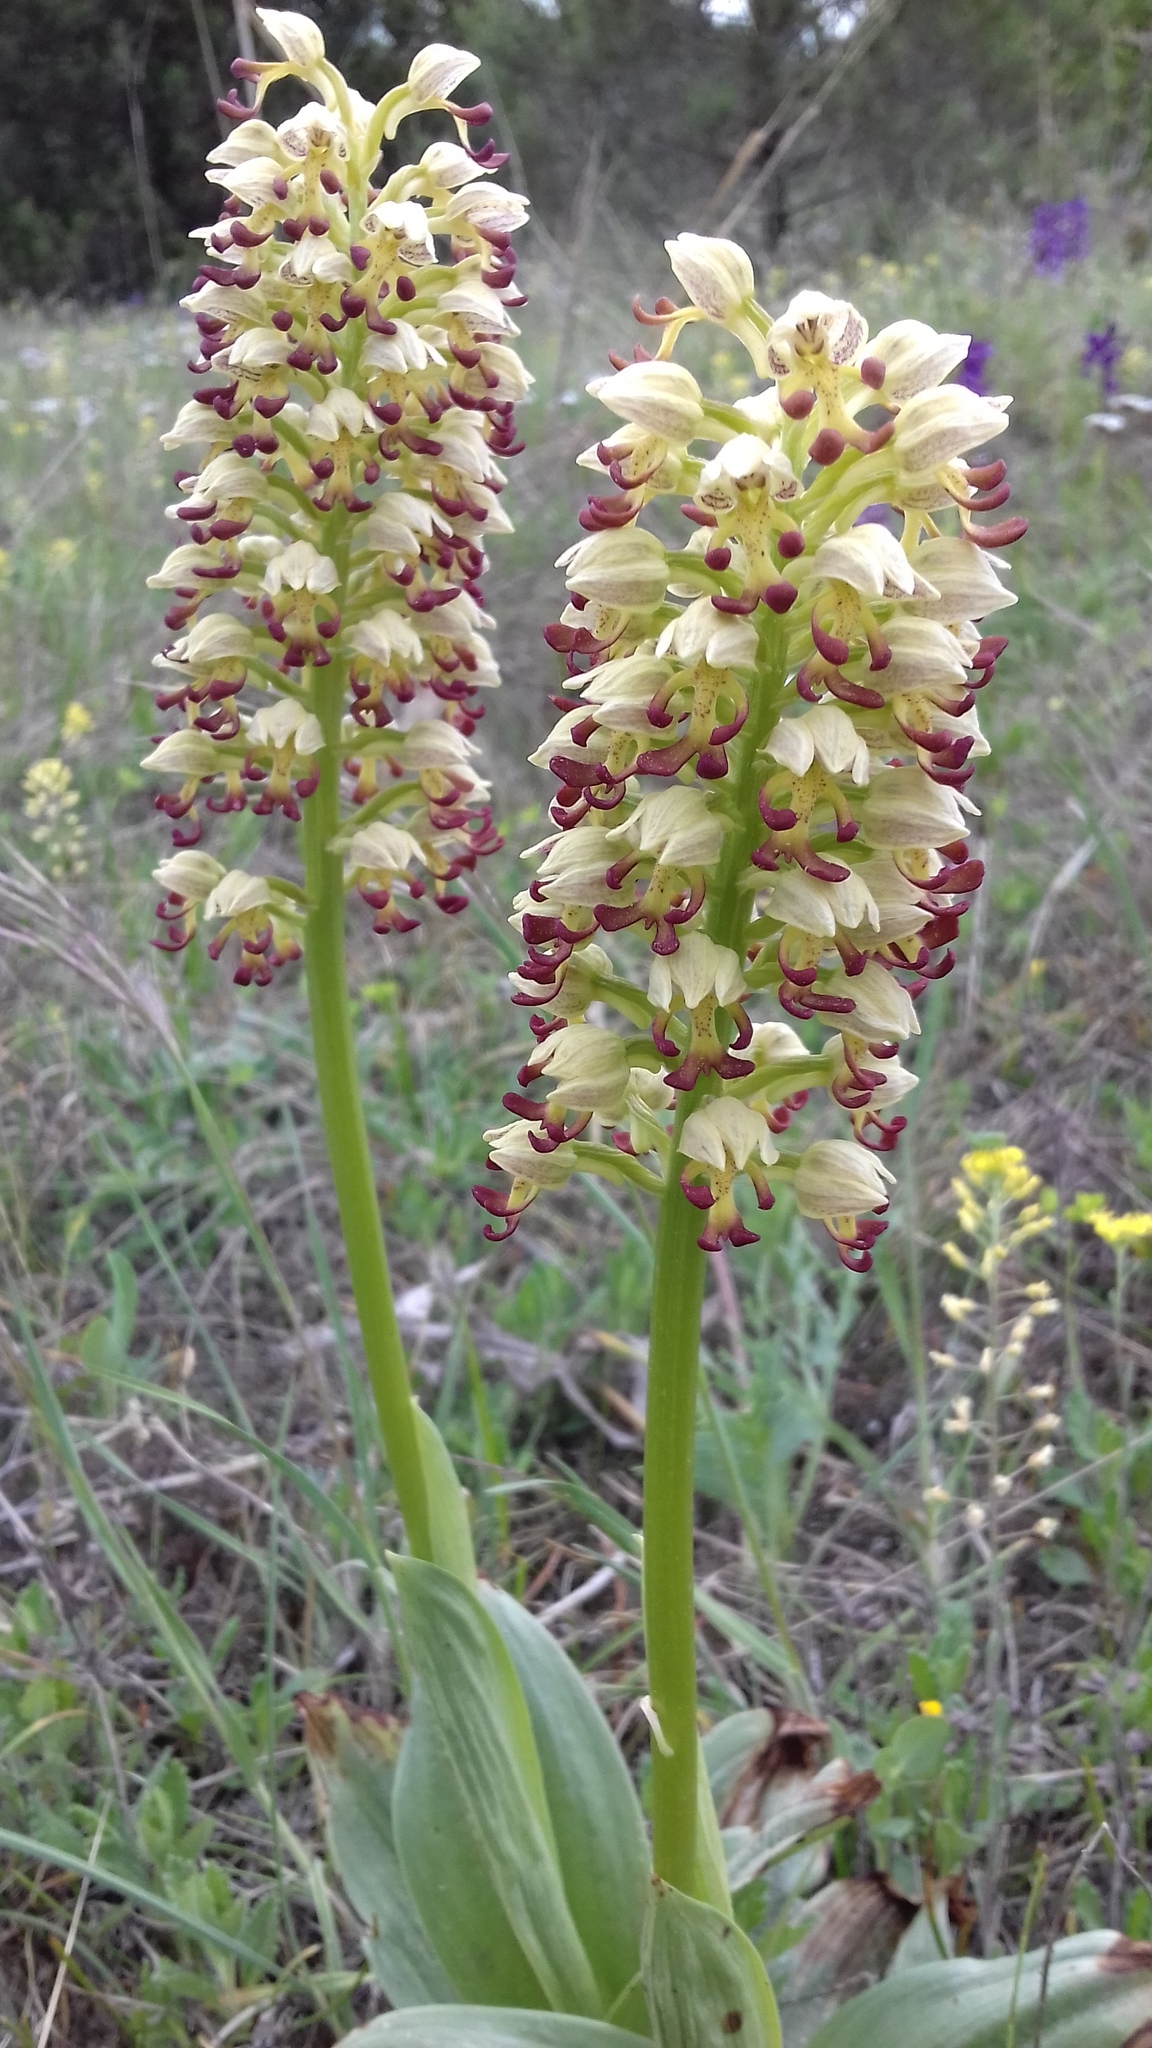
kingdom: Plantae
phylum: Tracheophyta
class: Liliopsida
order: Asparagales
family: Orchidaceae
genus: Orchis
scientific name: Orchis calliantha
